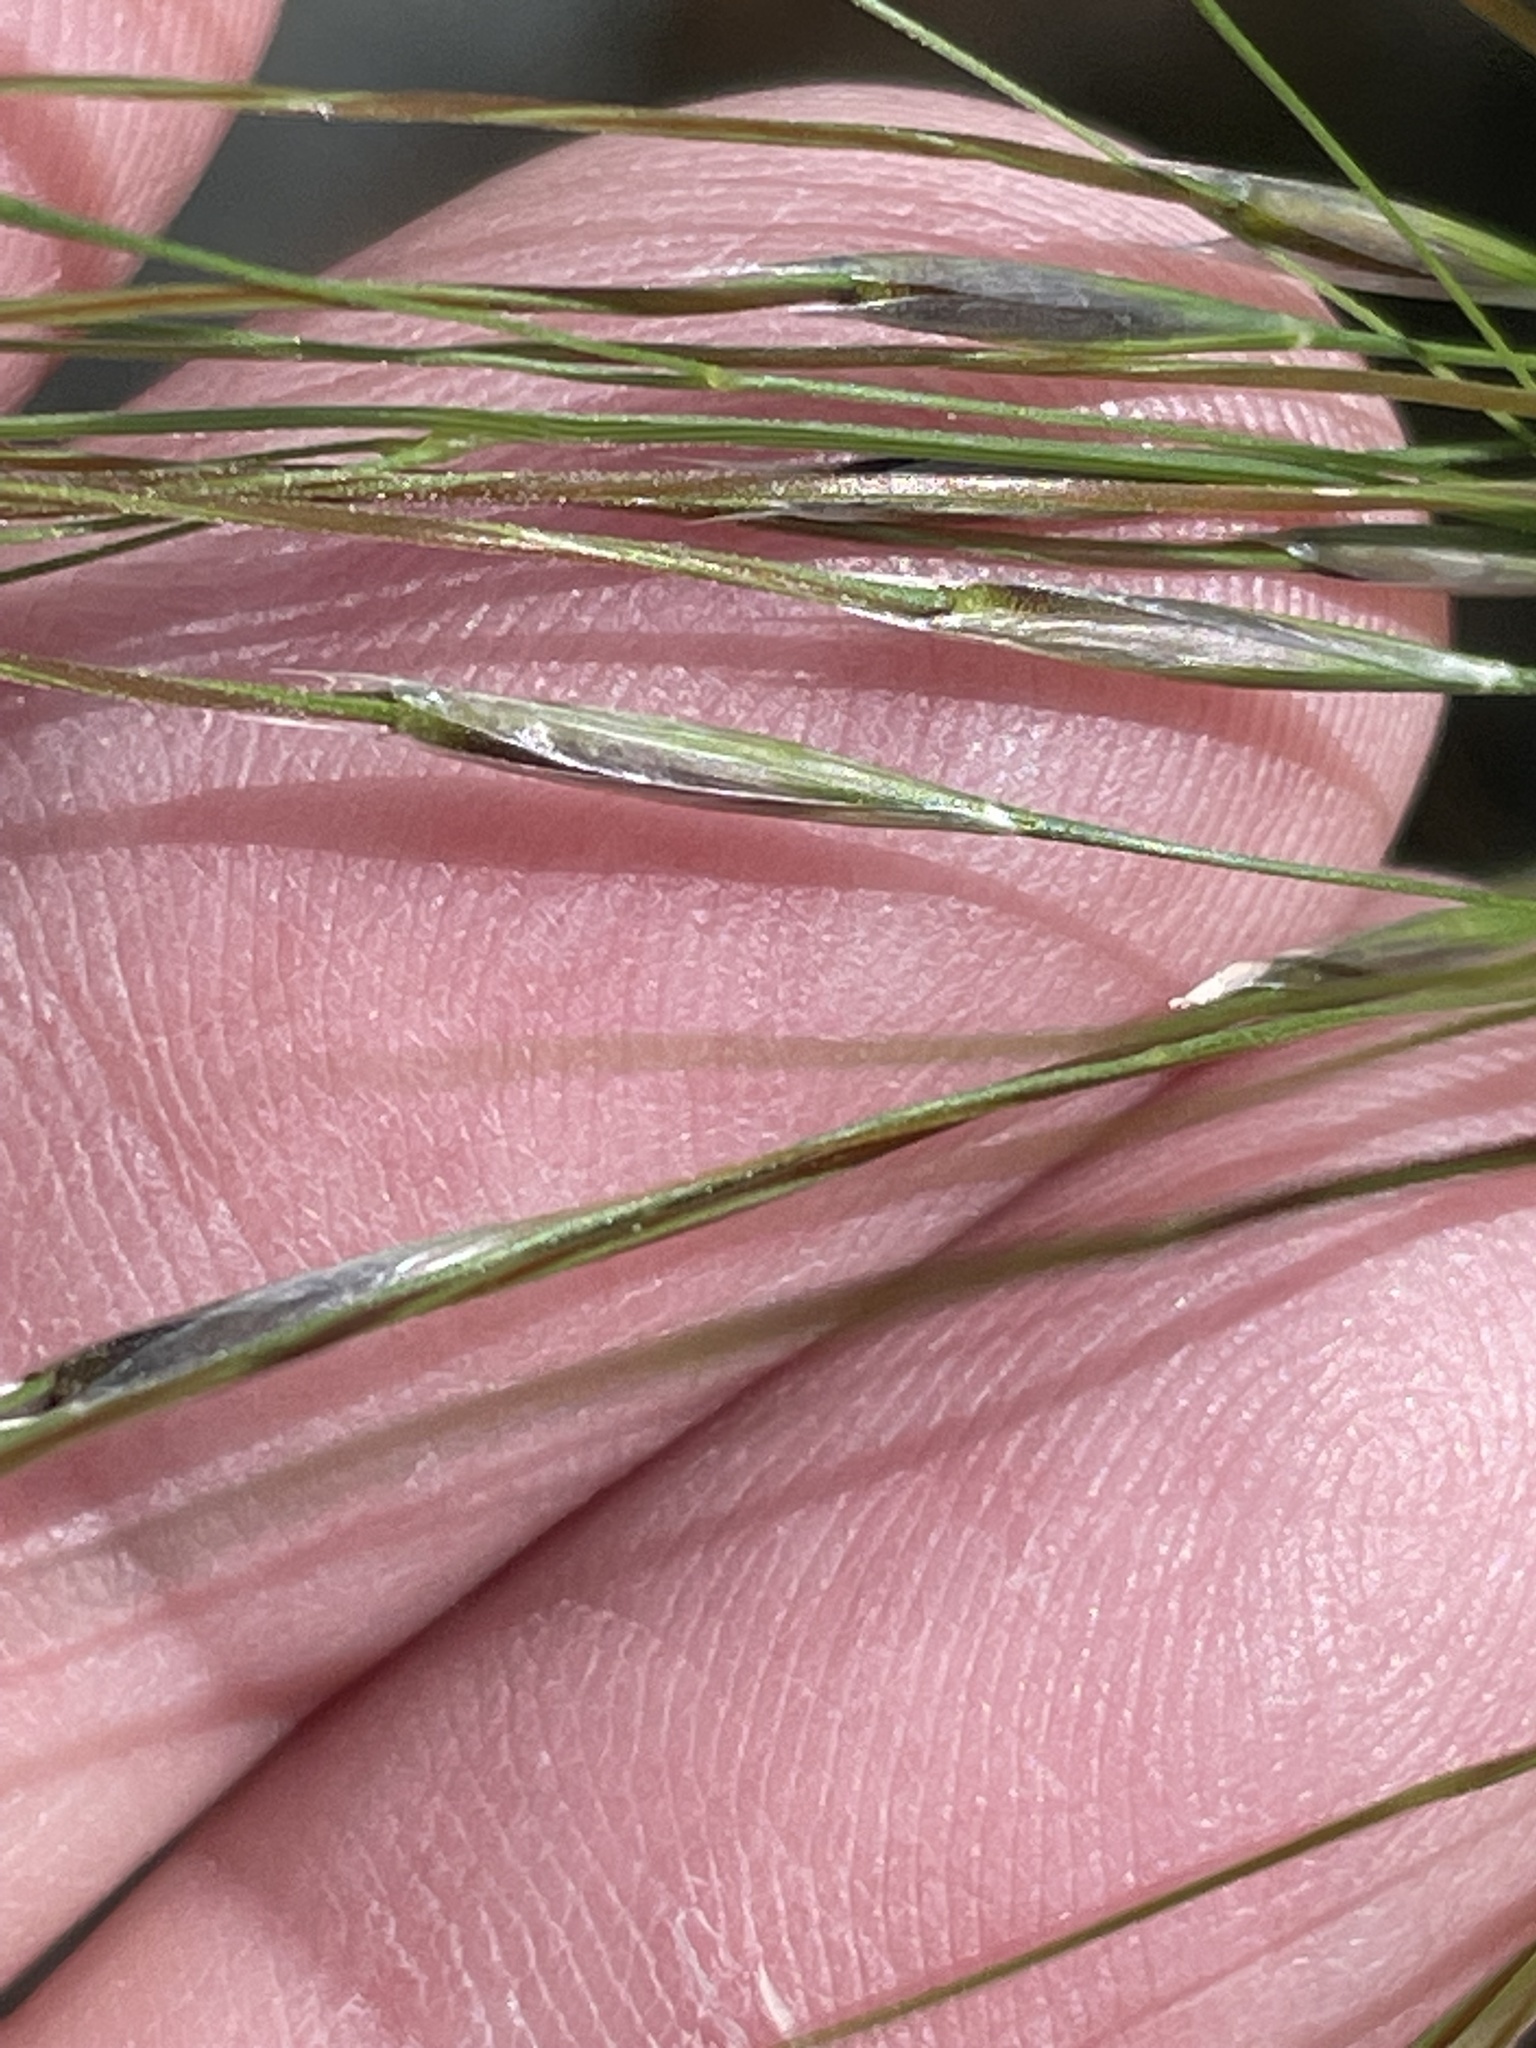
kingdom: Plantae
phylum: Tracheophyta
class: Liliopsida
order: Poales
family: Poaceae
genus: Piptochaetium
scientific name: Piptochaetium avenaceum
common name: Black bunchgrass
